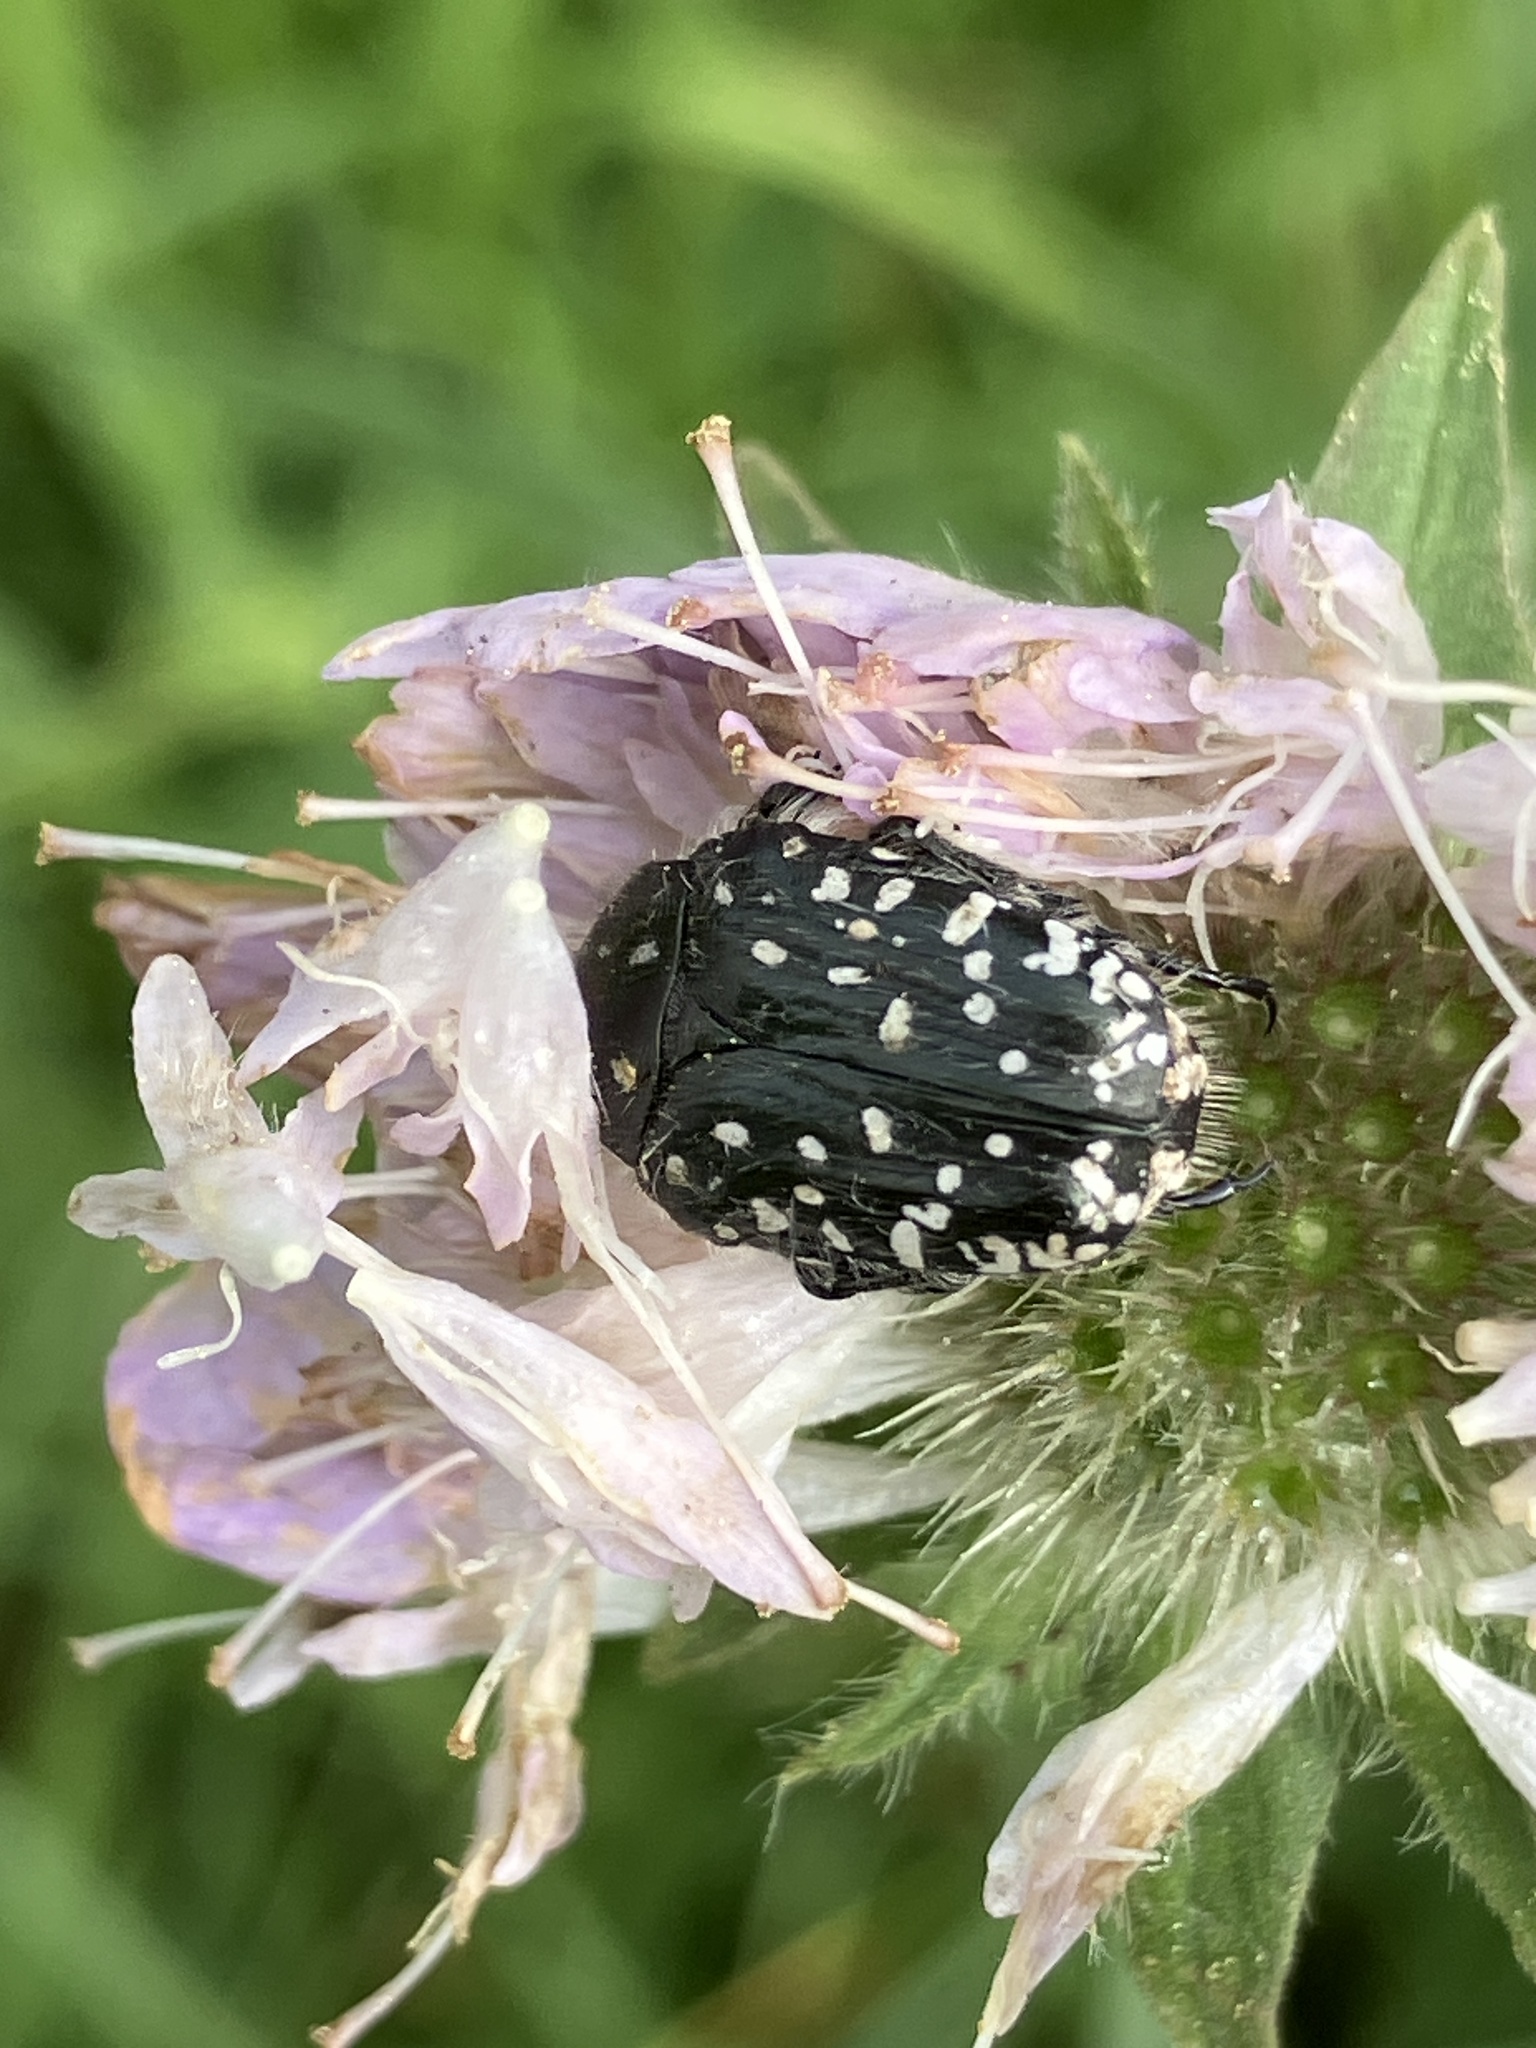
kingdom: Animalia
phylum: Arthropoda
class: Insecta
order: Coleoptera
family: Scarabaeidae
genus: Oxythyrea
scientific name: Oxythyrea funesta
